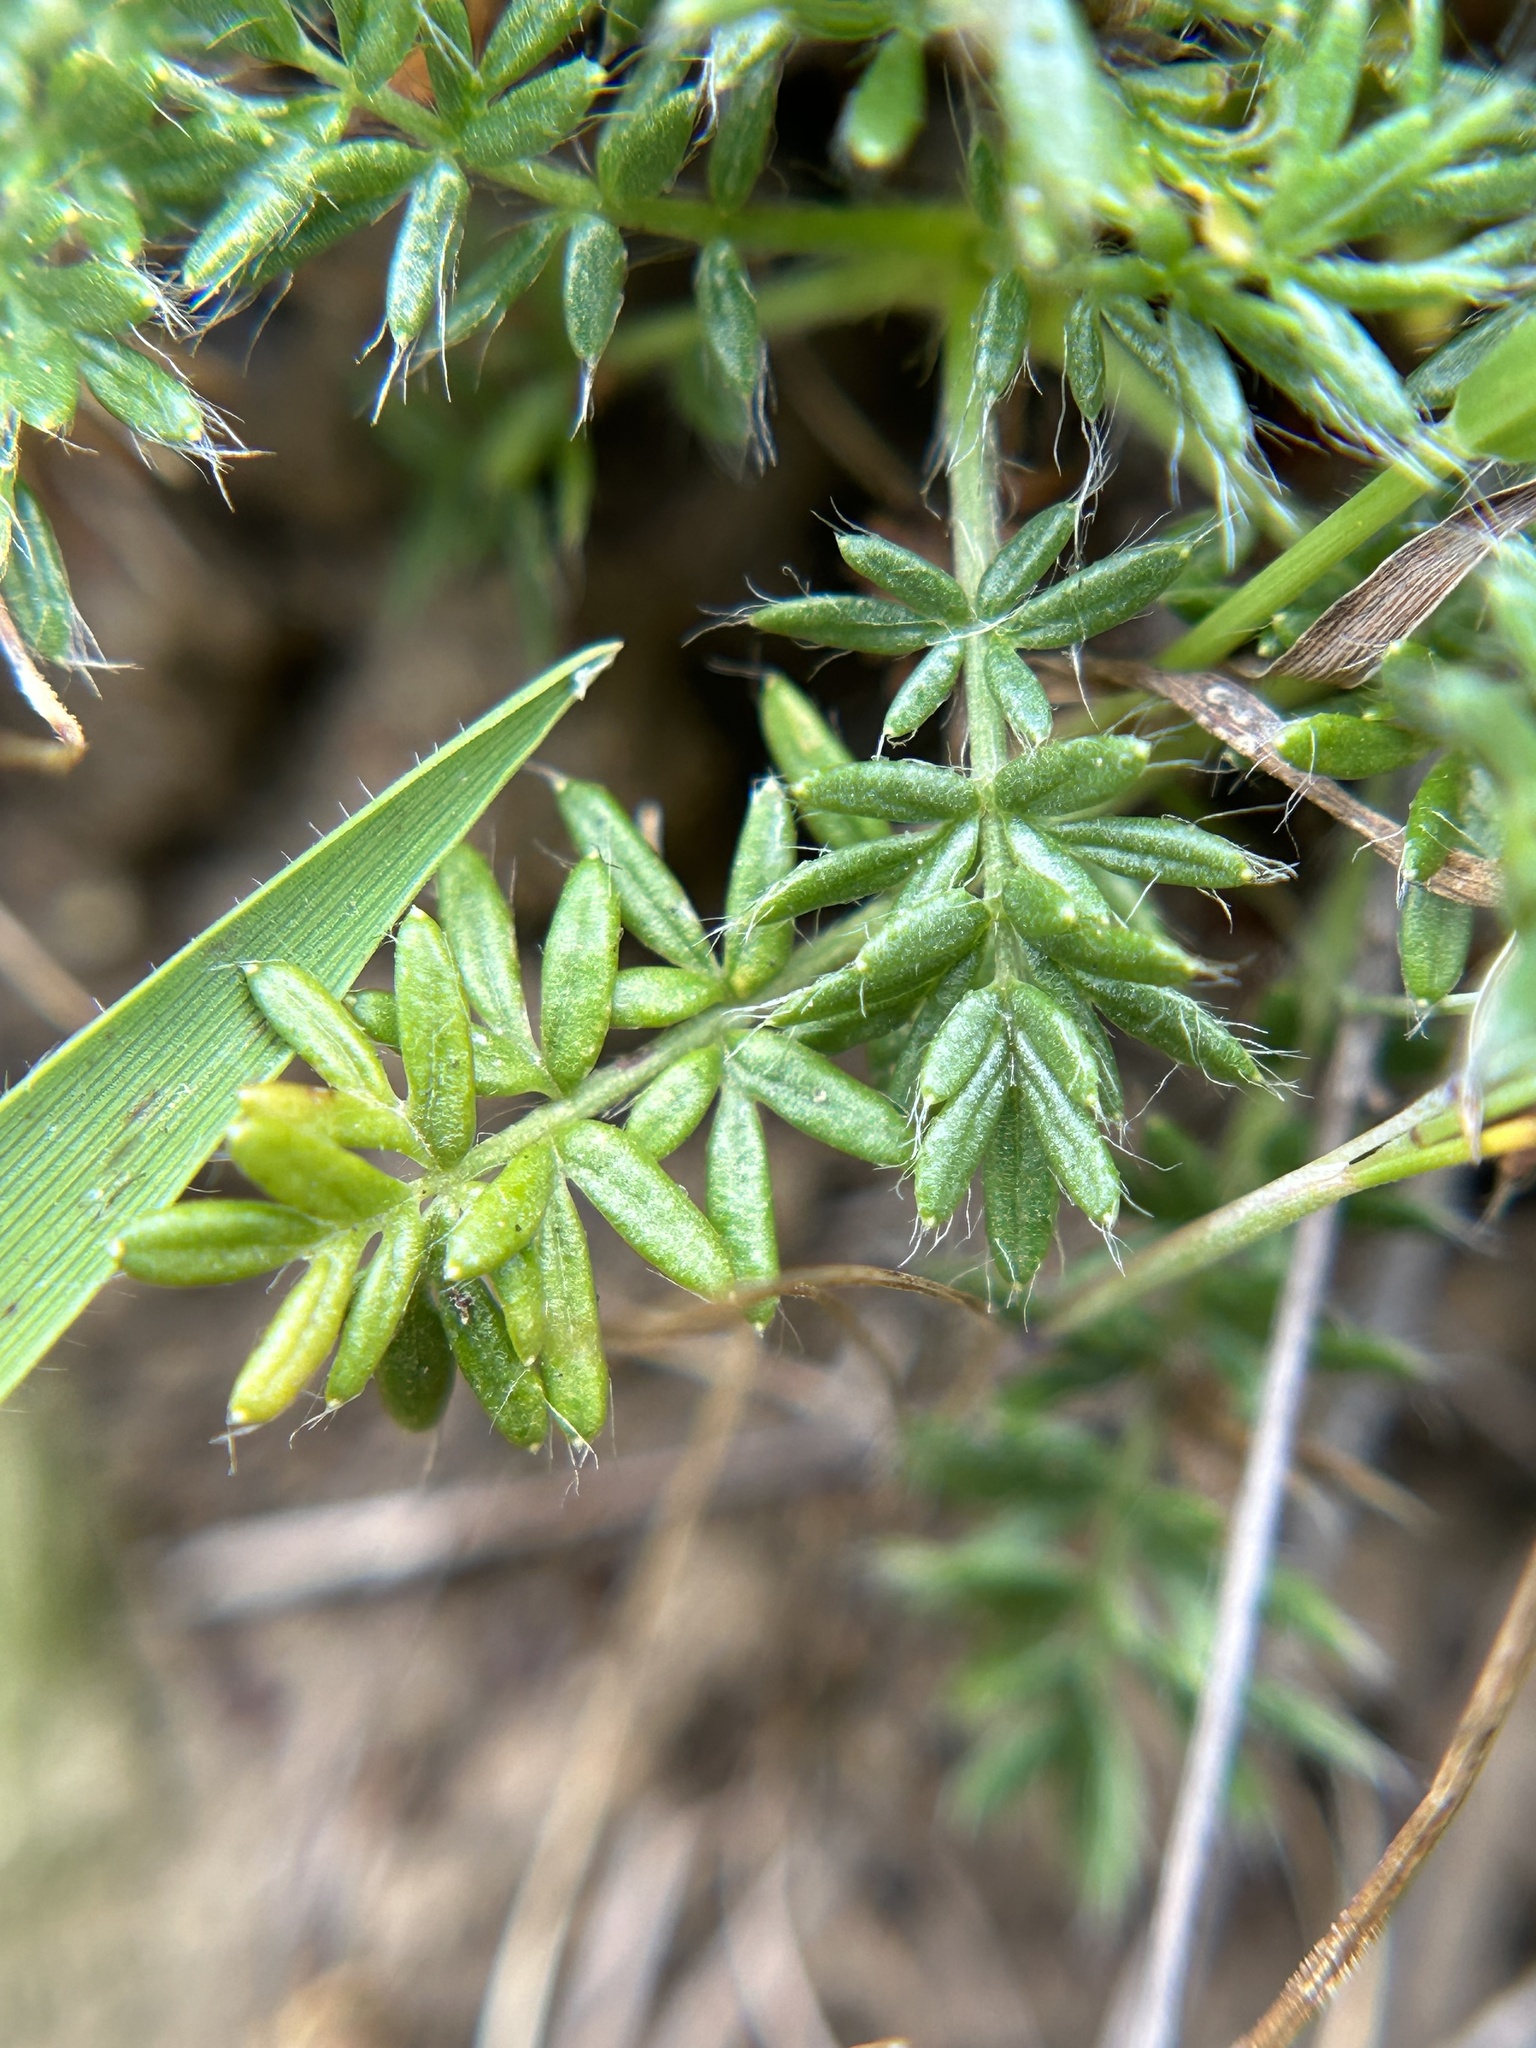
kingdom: Plantae
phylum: Tracheophyta
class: Magnoliopsida
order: Rosales
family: Rosaceae
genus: Acaena
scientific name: Acaena pinnatifida
